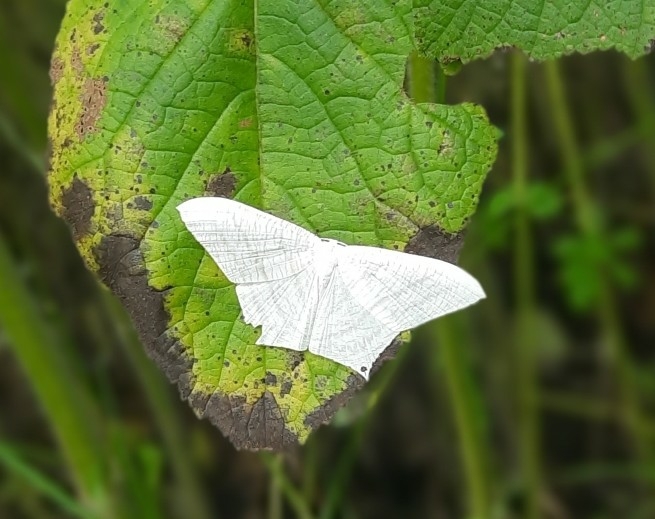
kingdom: Animalia
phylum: Arthropoda
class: Insecta
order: Lepidoptera
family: Uraniidae
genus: Micronia
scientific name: Micronia aculeata
